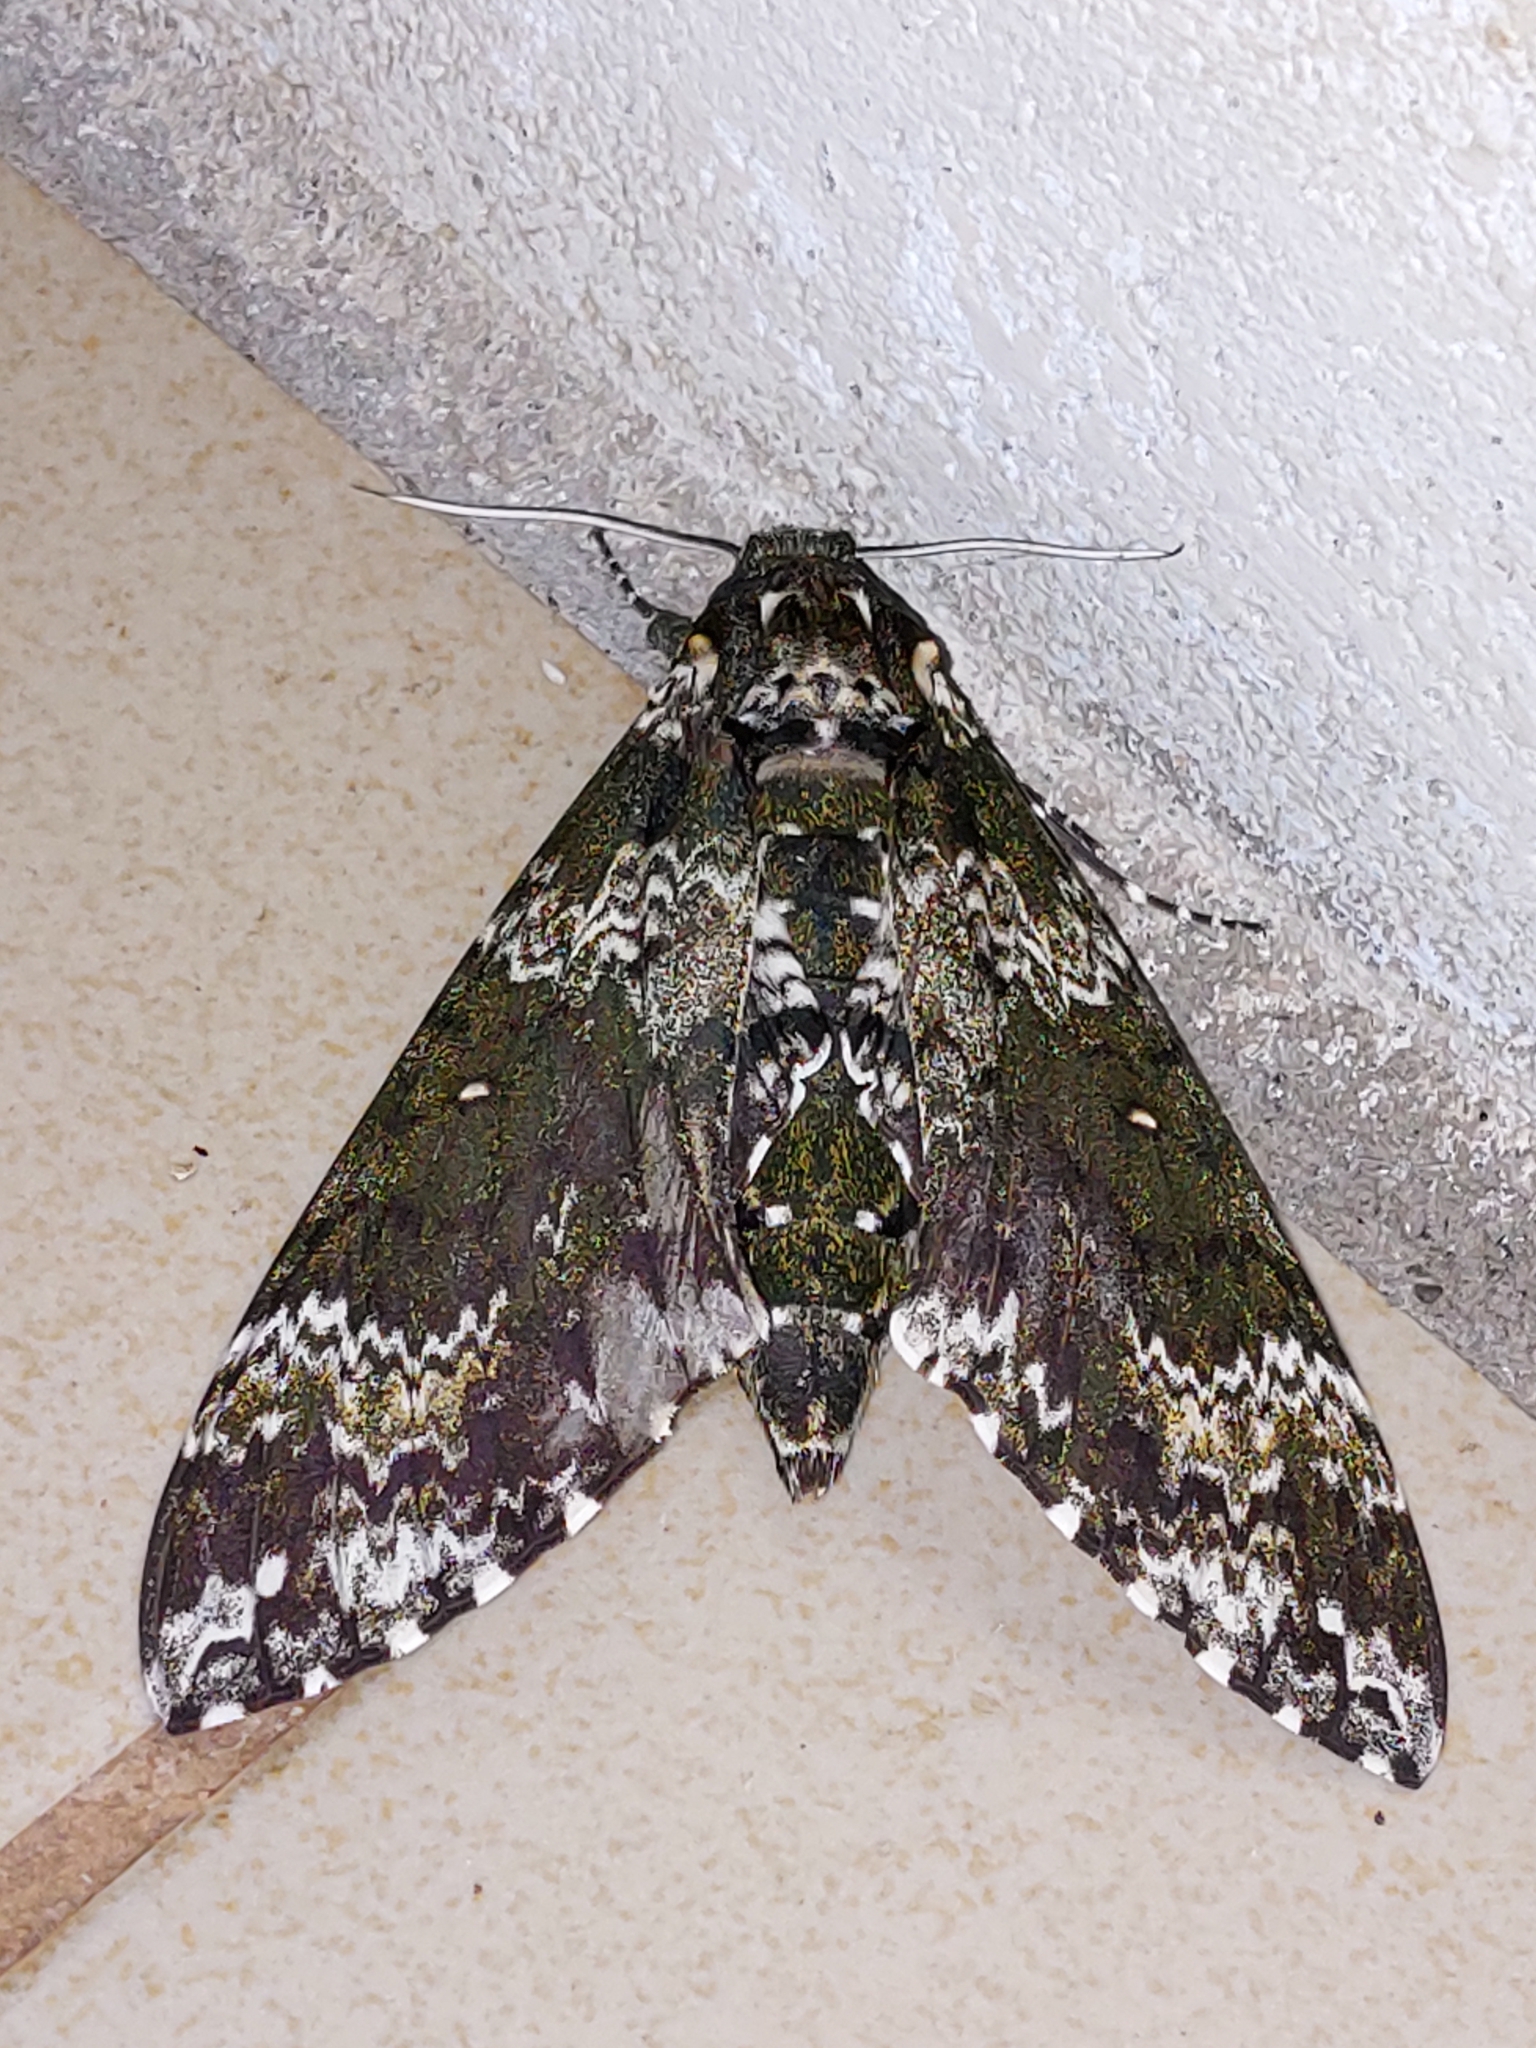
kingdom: Animalia
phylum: Arthropoda
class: Insecta
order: Lepidoptera
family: Sphingidae
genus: Manduca
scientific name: Manduca rustica
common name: Rustic sphinx
